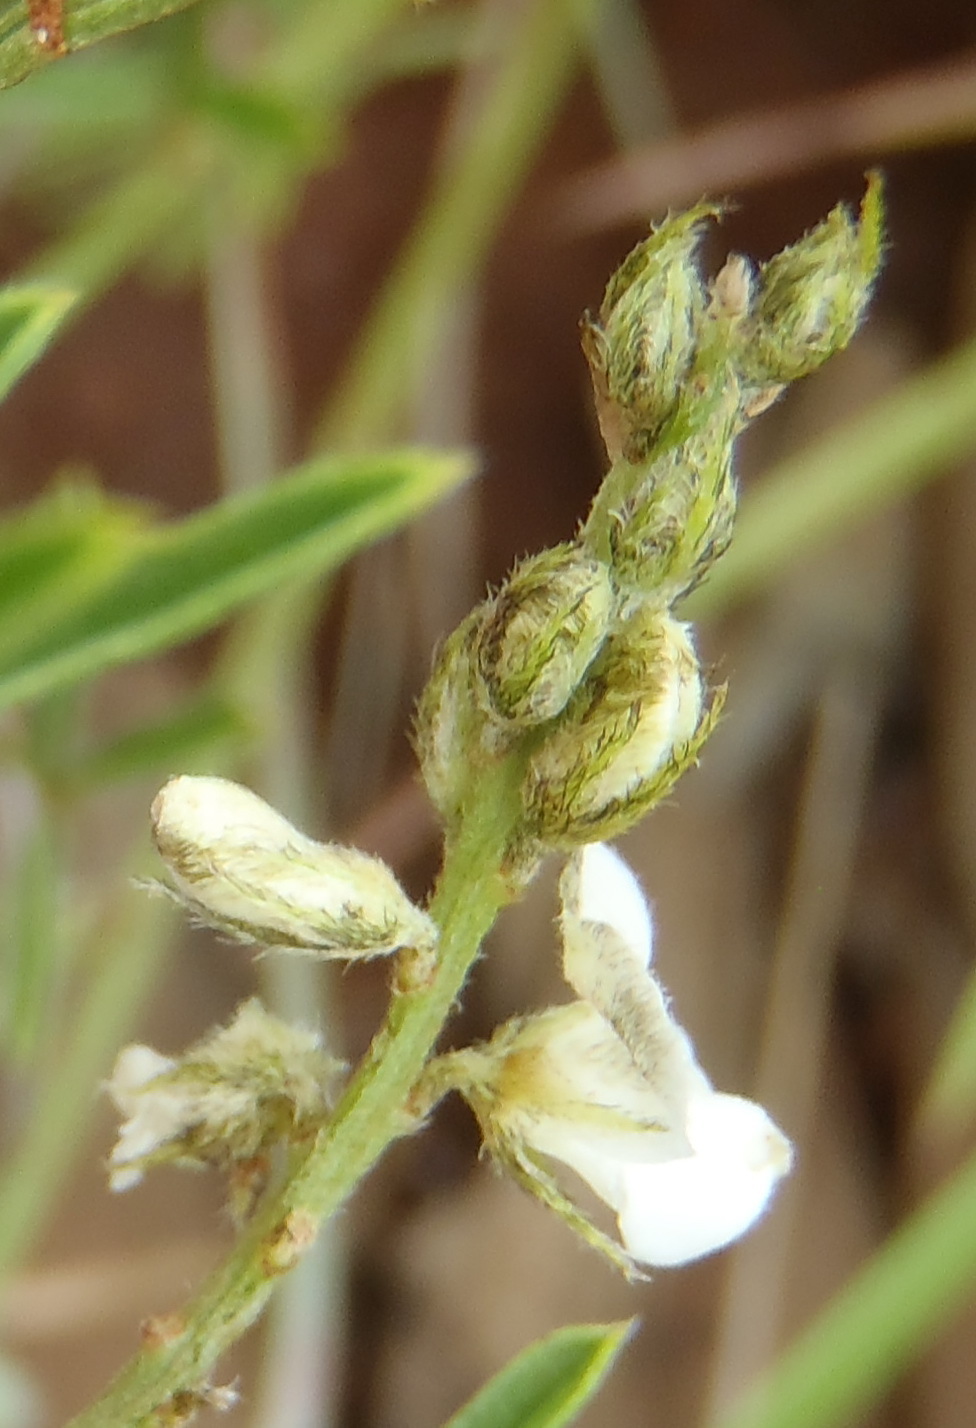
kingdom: Plantae
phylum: Tracheophyta
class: Magnoliopsida
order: Fabales
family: Fabaceae
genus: Indigofera
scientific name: Indigofera pretoriana
